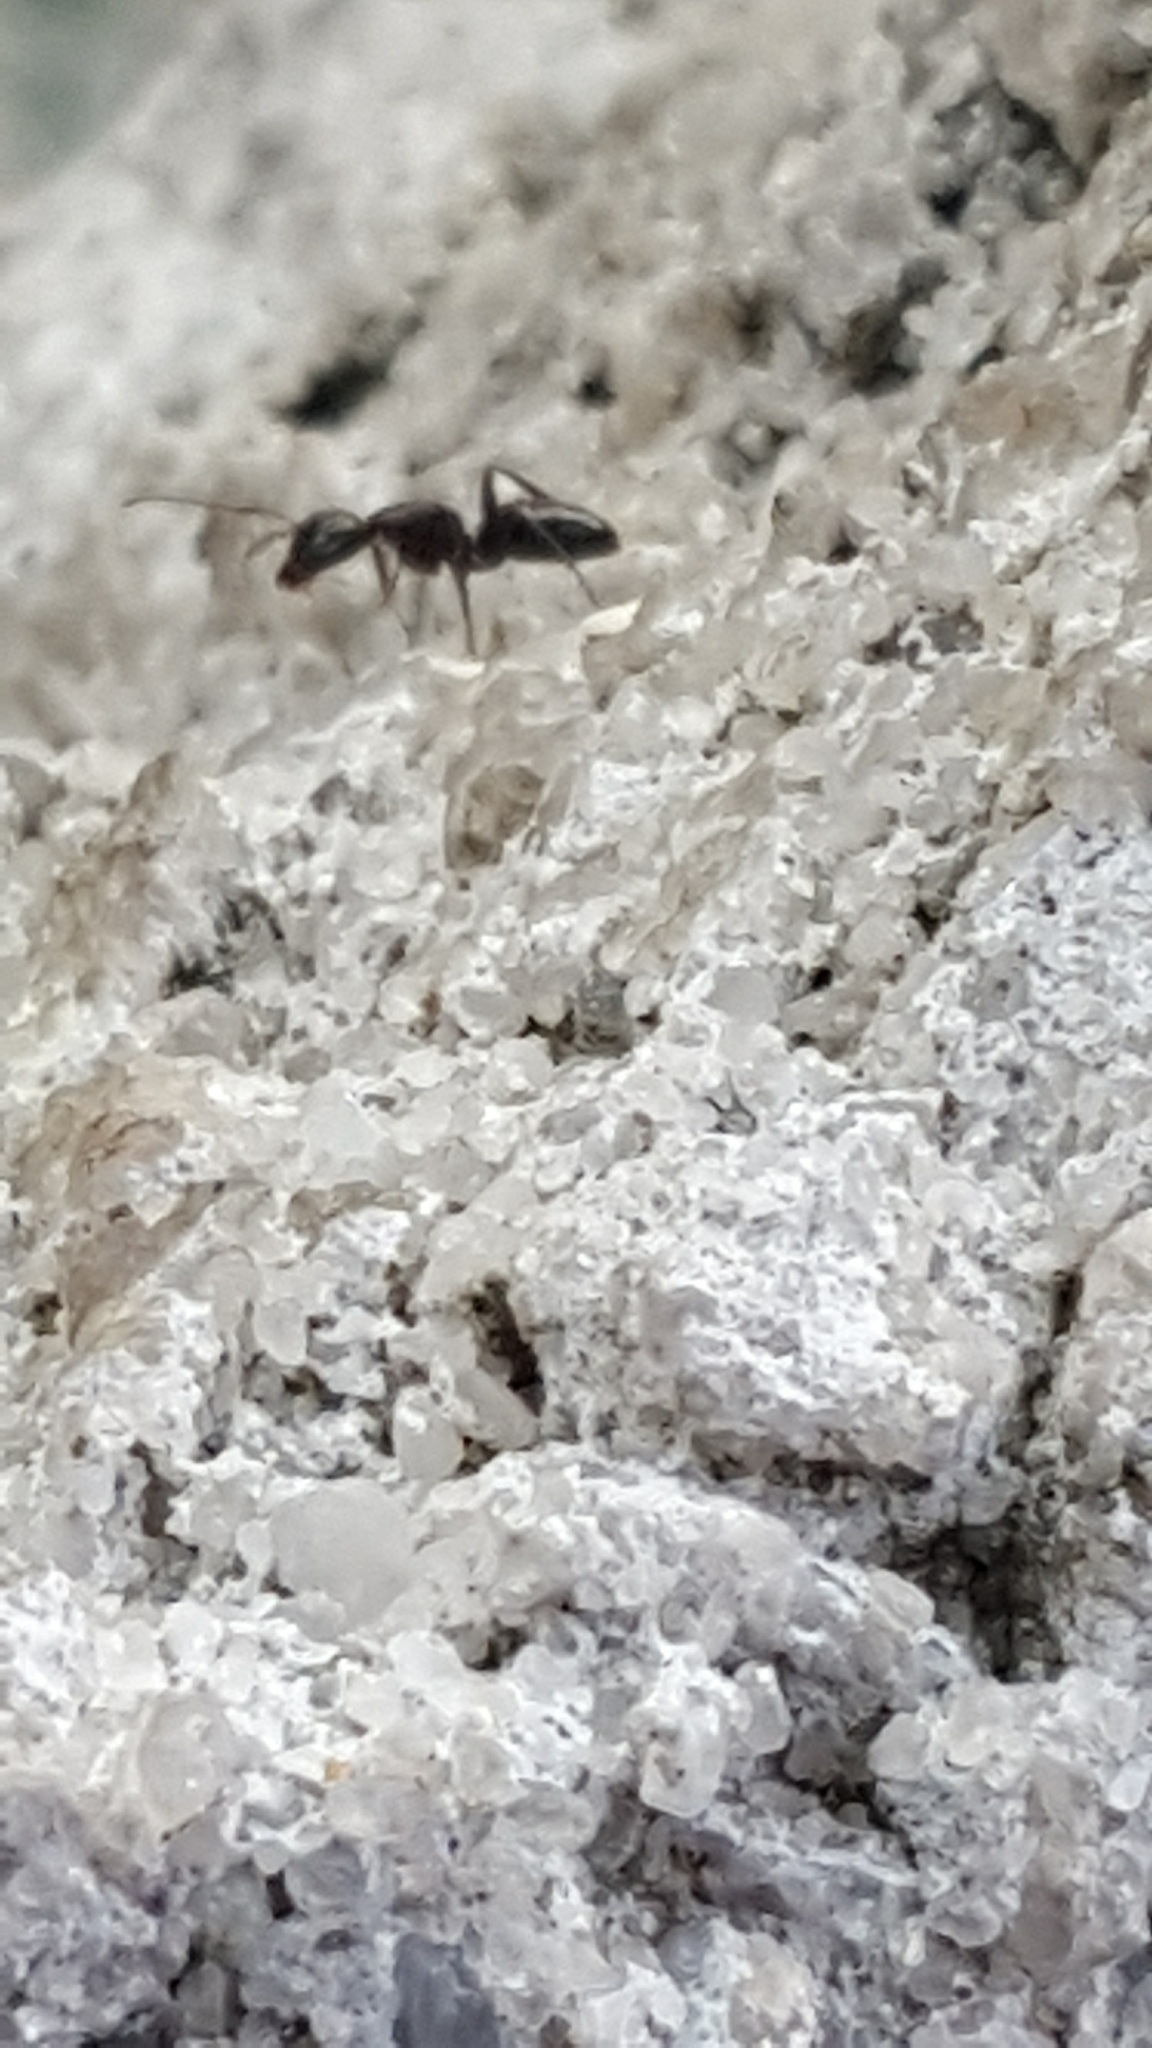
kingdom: Animalia
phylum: Arthropoda
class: Insecta
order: Hymenoptera
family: Formicidae
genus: Camponotus
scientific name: Camponotus
